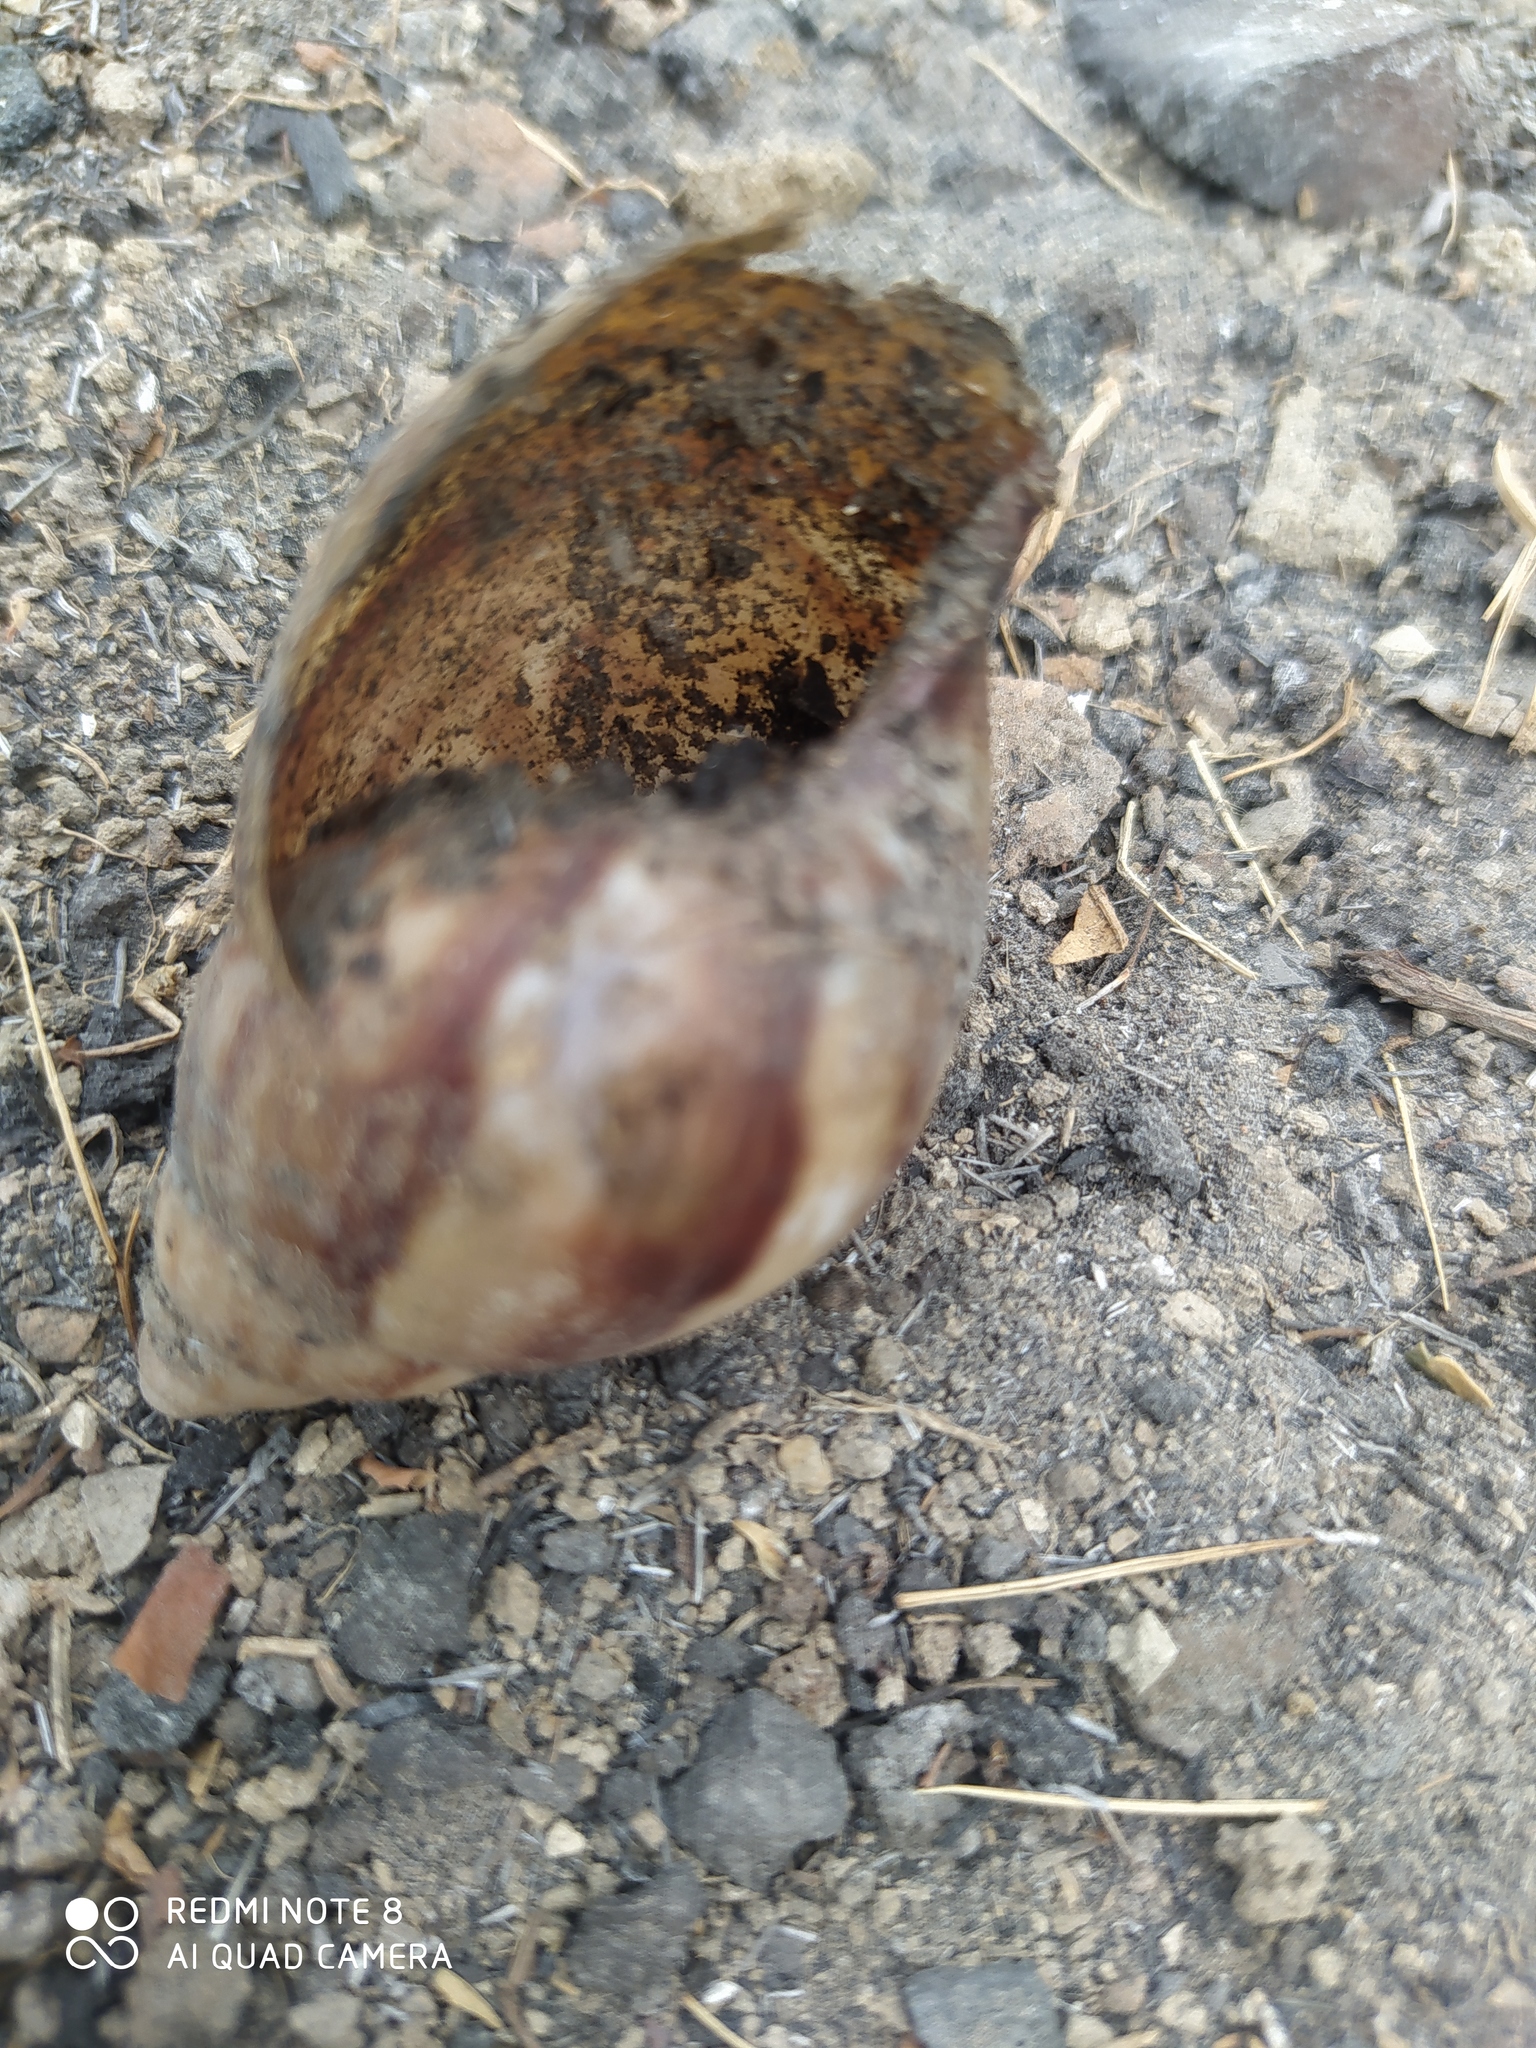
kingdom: Animalia
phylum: Mollusca
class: Gastropoda
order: Stylommatophora
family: Achatinidae
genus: Lissachatina
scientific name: Lissachatina fulica
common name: Giant african snail
